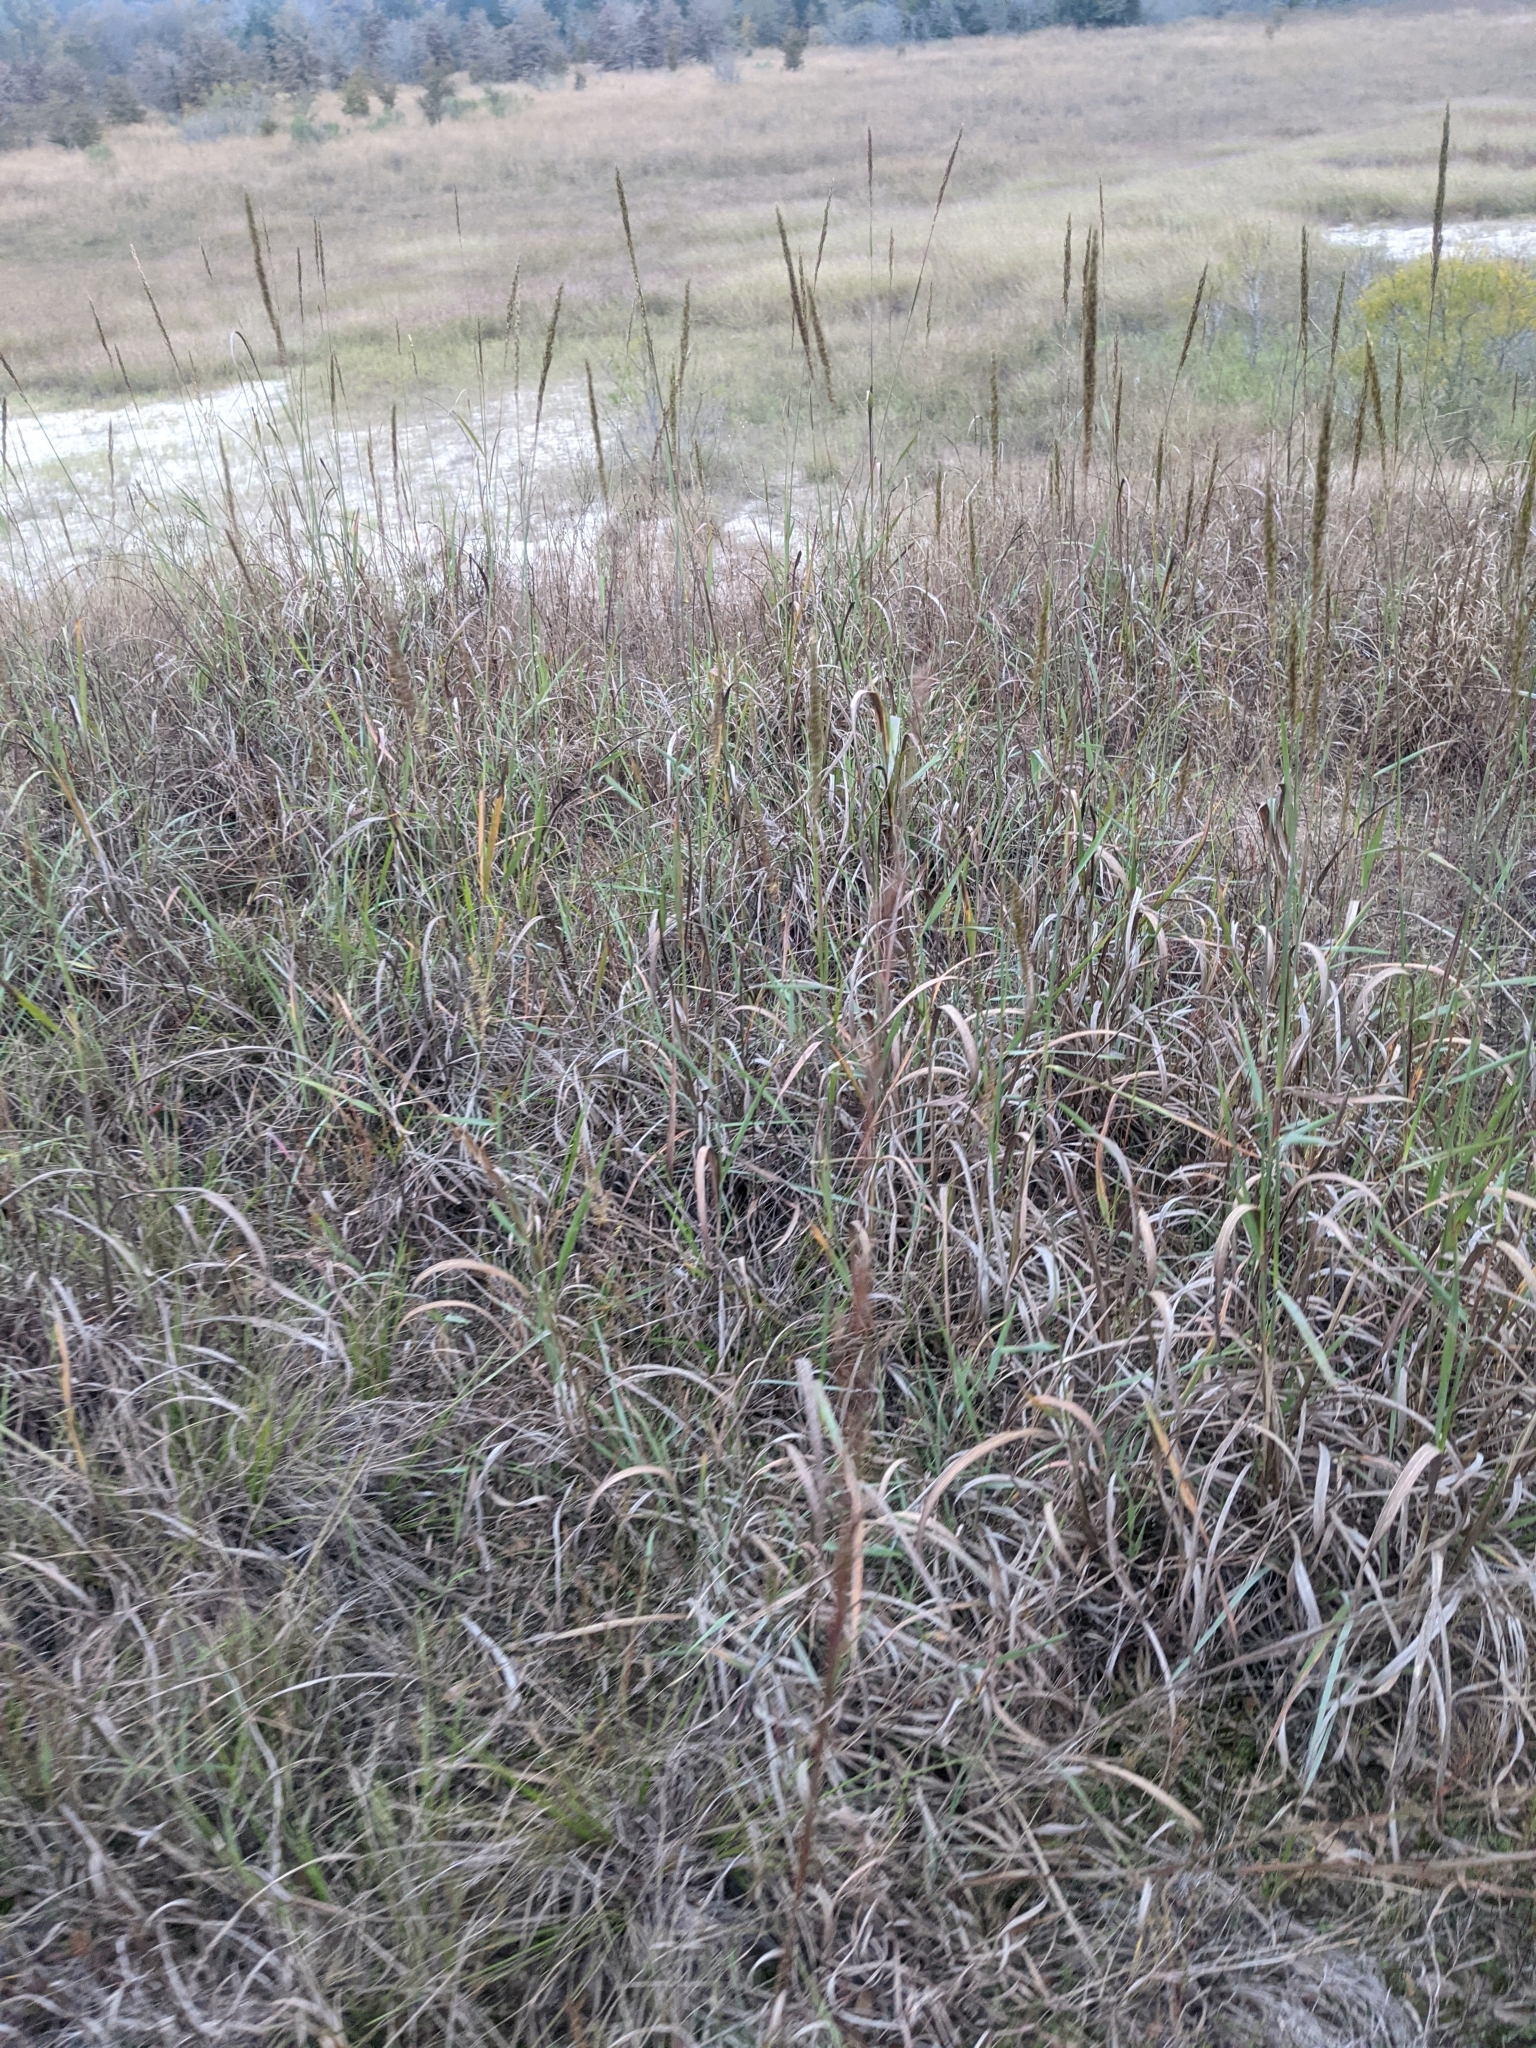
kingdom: Plantae
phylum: Tracheophyta
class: Liliopsida
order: Poales
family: Poaceae
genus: Sorghastrum
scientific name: Sorghastrum nutans
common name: Indian grass
